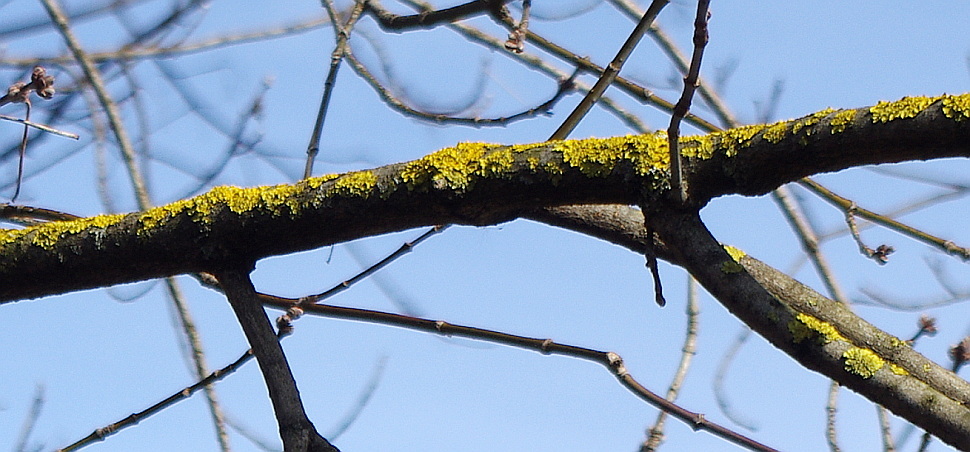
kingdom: Fungi
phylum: Ascomycota
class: Lecanoromycetes
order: Teloschistales
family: Teloschistaceae
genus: Xanthoria
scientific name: Xanthoria parietina
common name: Common orange lichen
